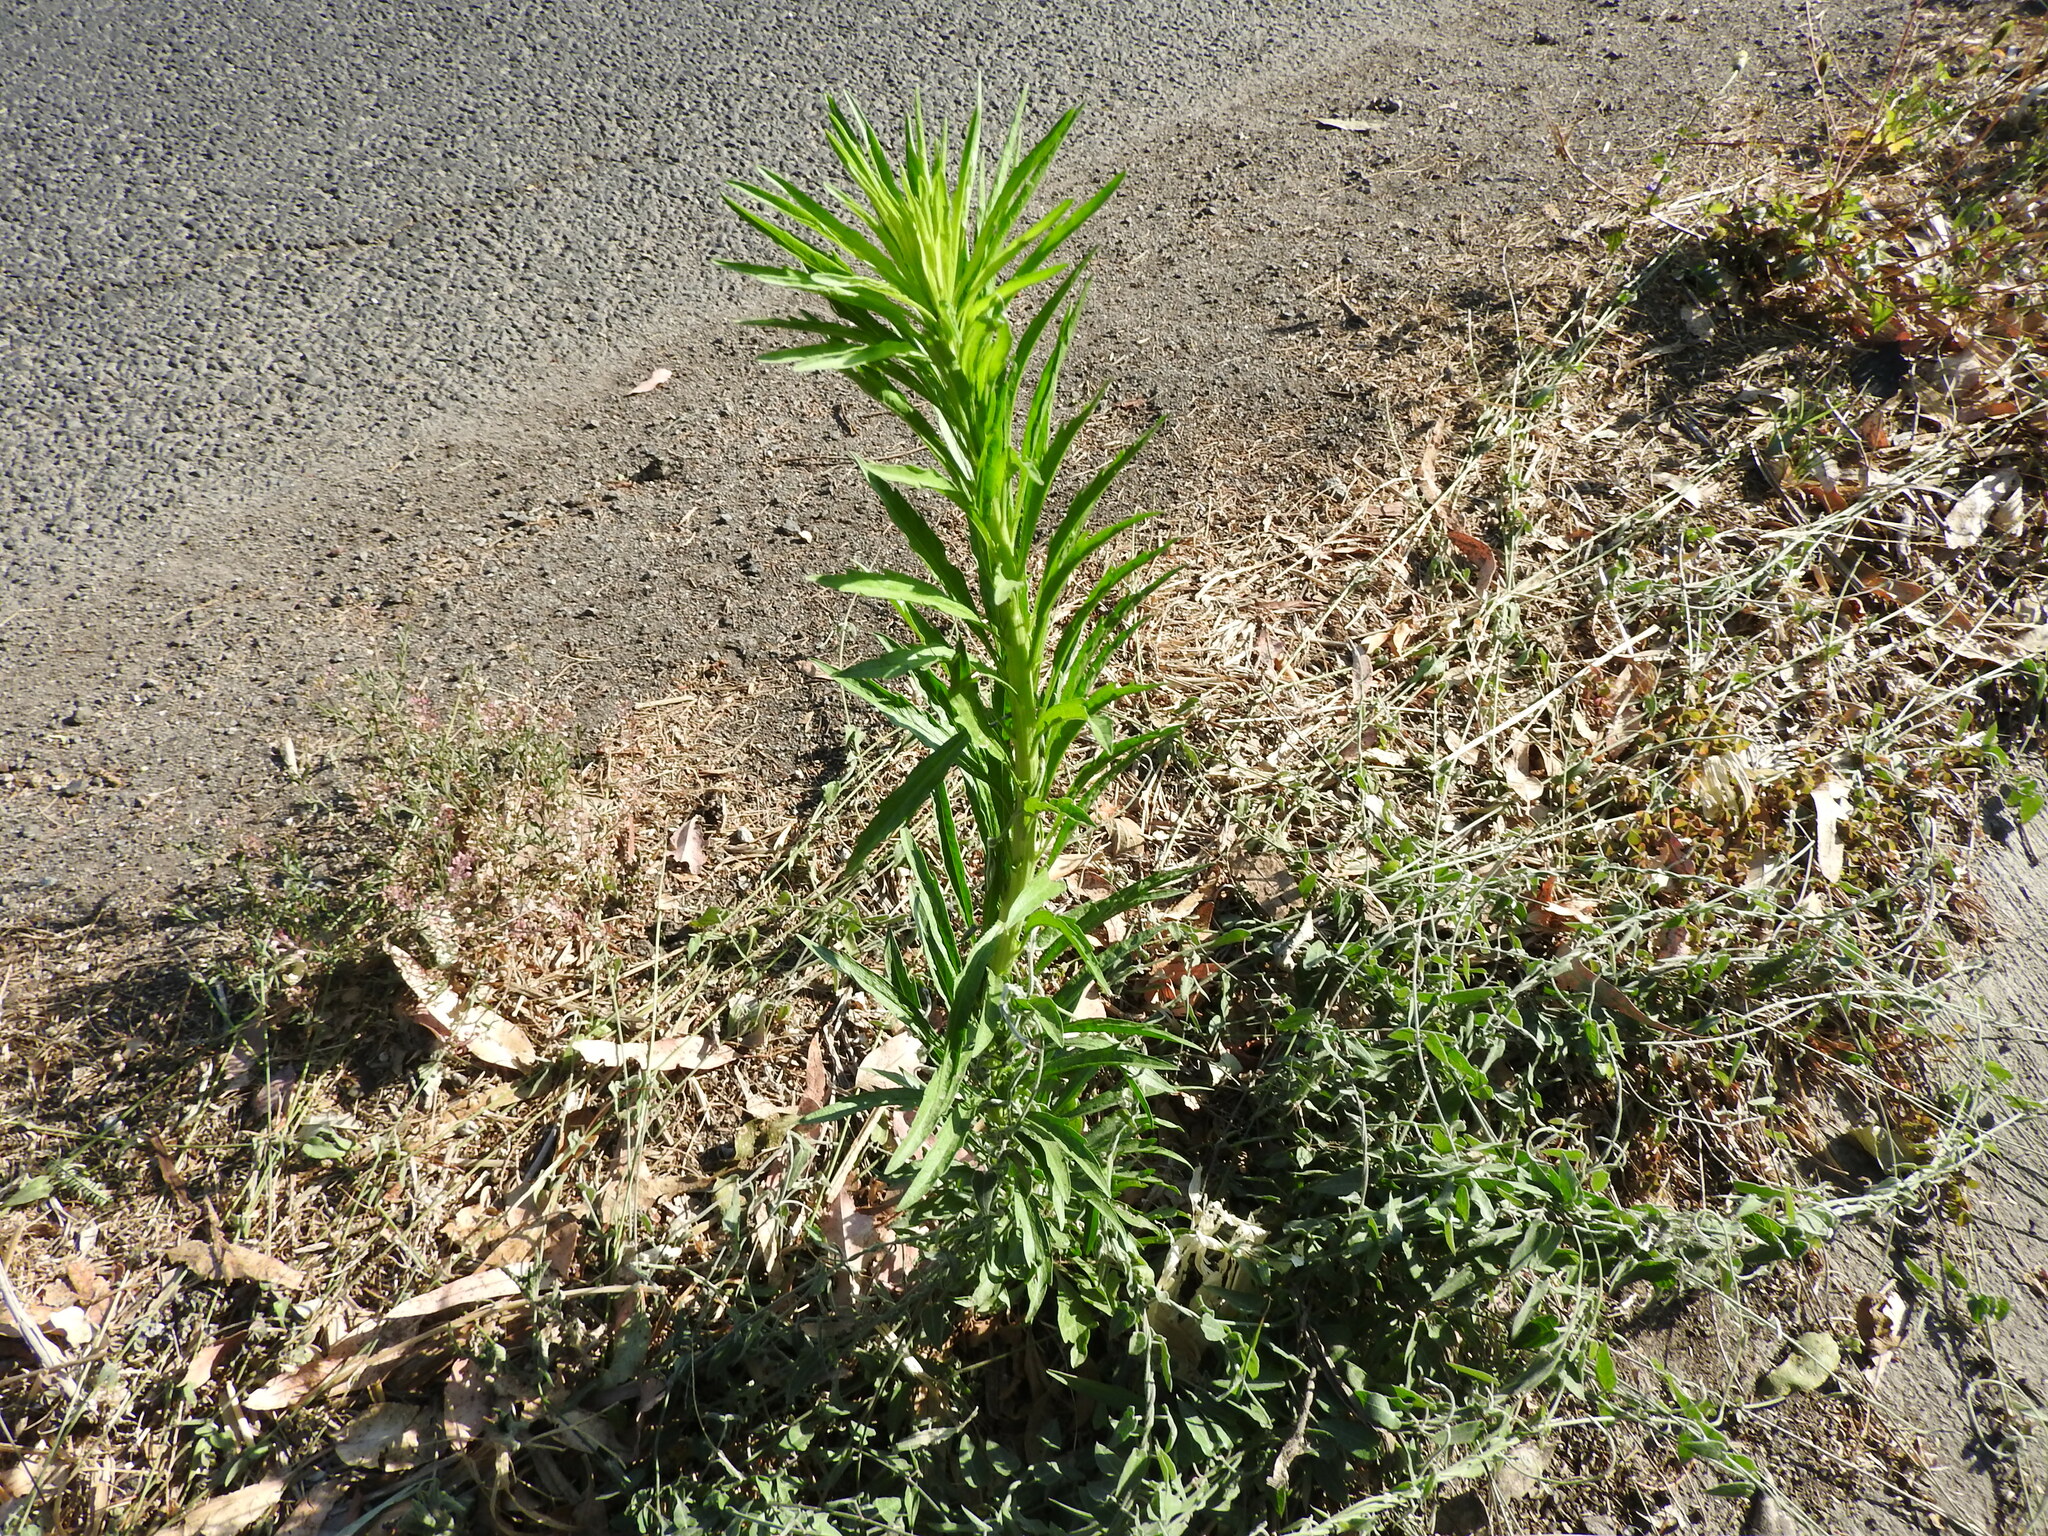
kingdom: Plantae
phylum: Tracheophyta
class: Magnoliopsida
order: Asterales
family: Asteraceae
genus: Erigeron
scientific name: Erigeron canadensis
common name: Canadian fleabane
